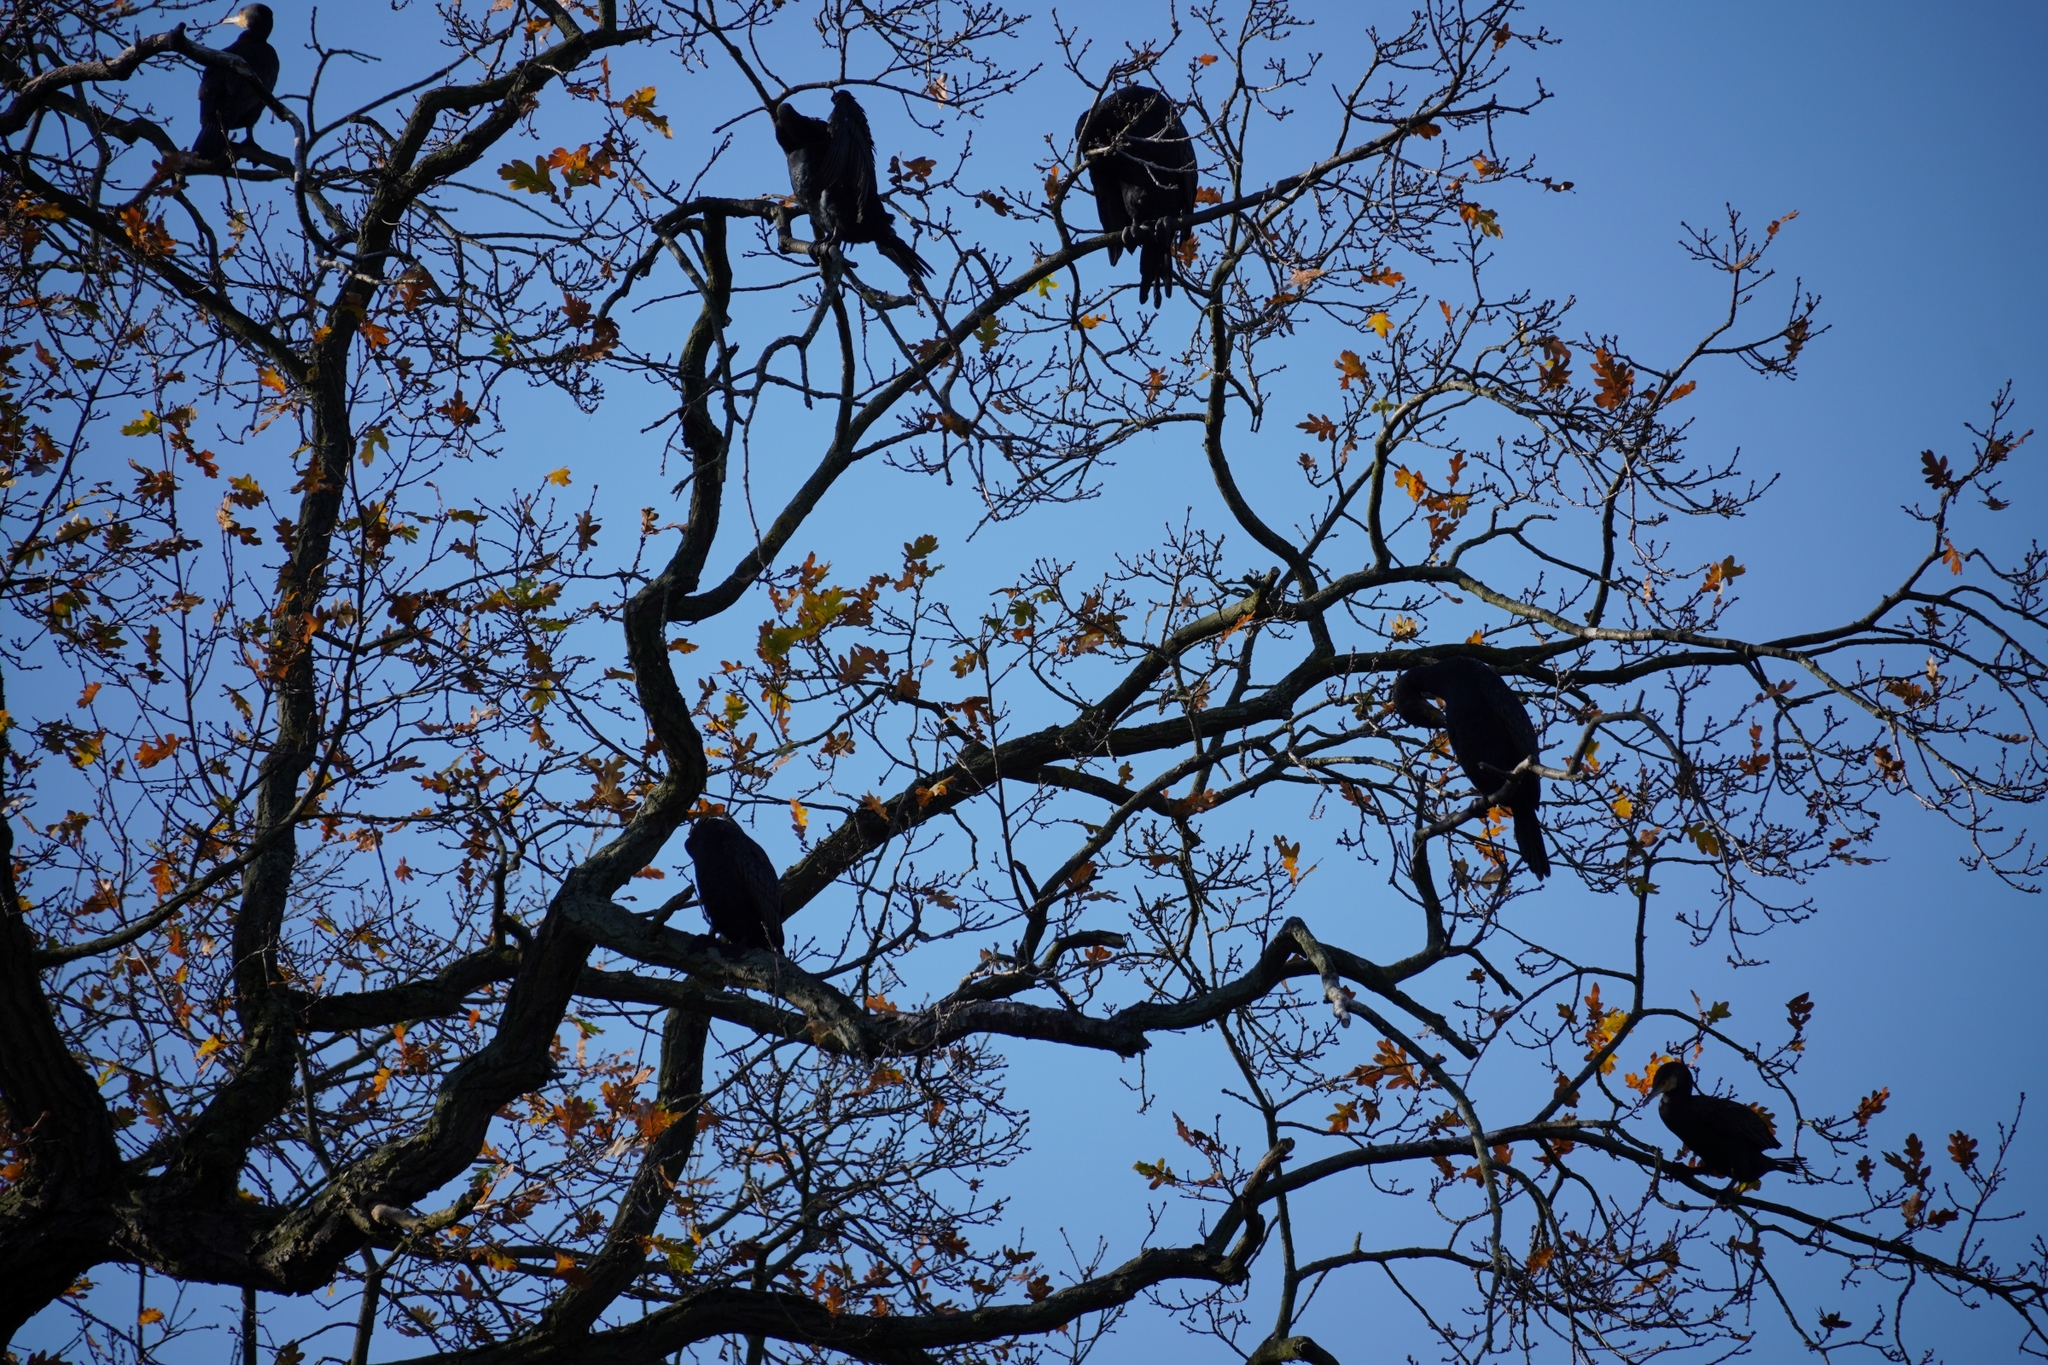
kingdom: Animalia
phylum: Chordata
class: Aves
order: Suliformes
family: Phalacrocoracidae
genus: Phalacrocorax
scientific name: Phalacrocorax carbo
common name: Great cormorant
